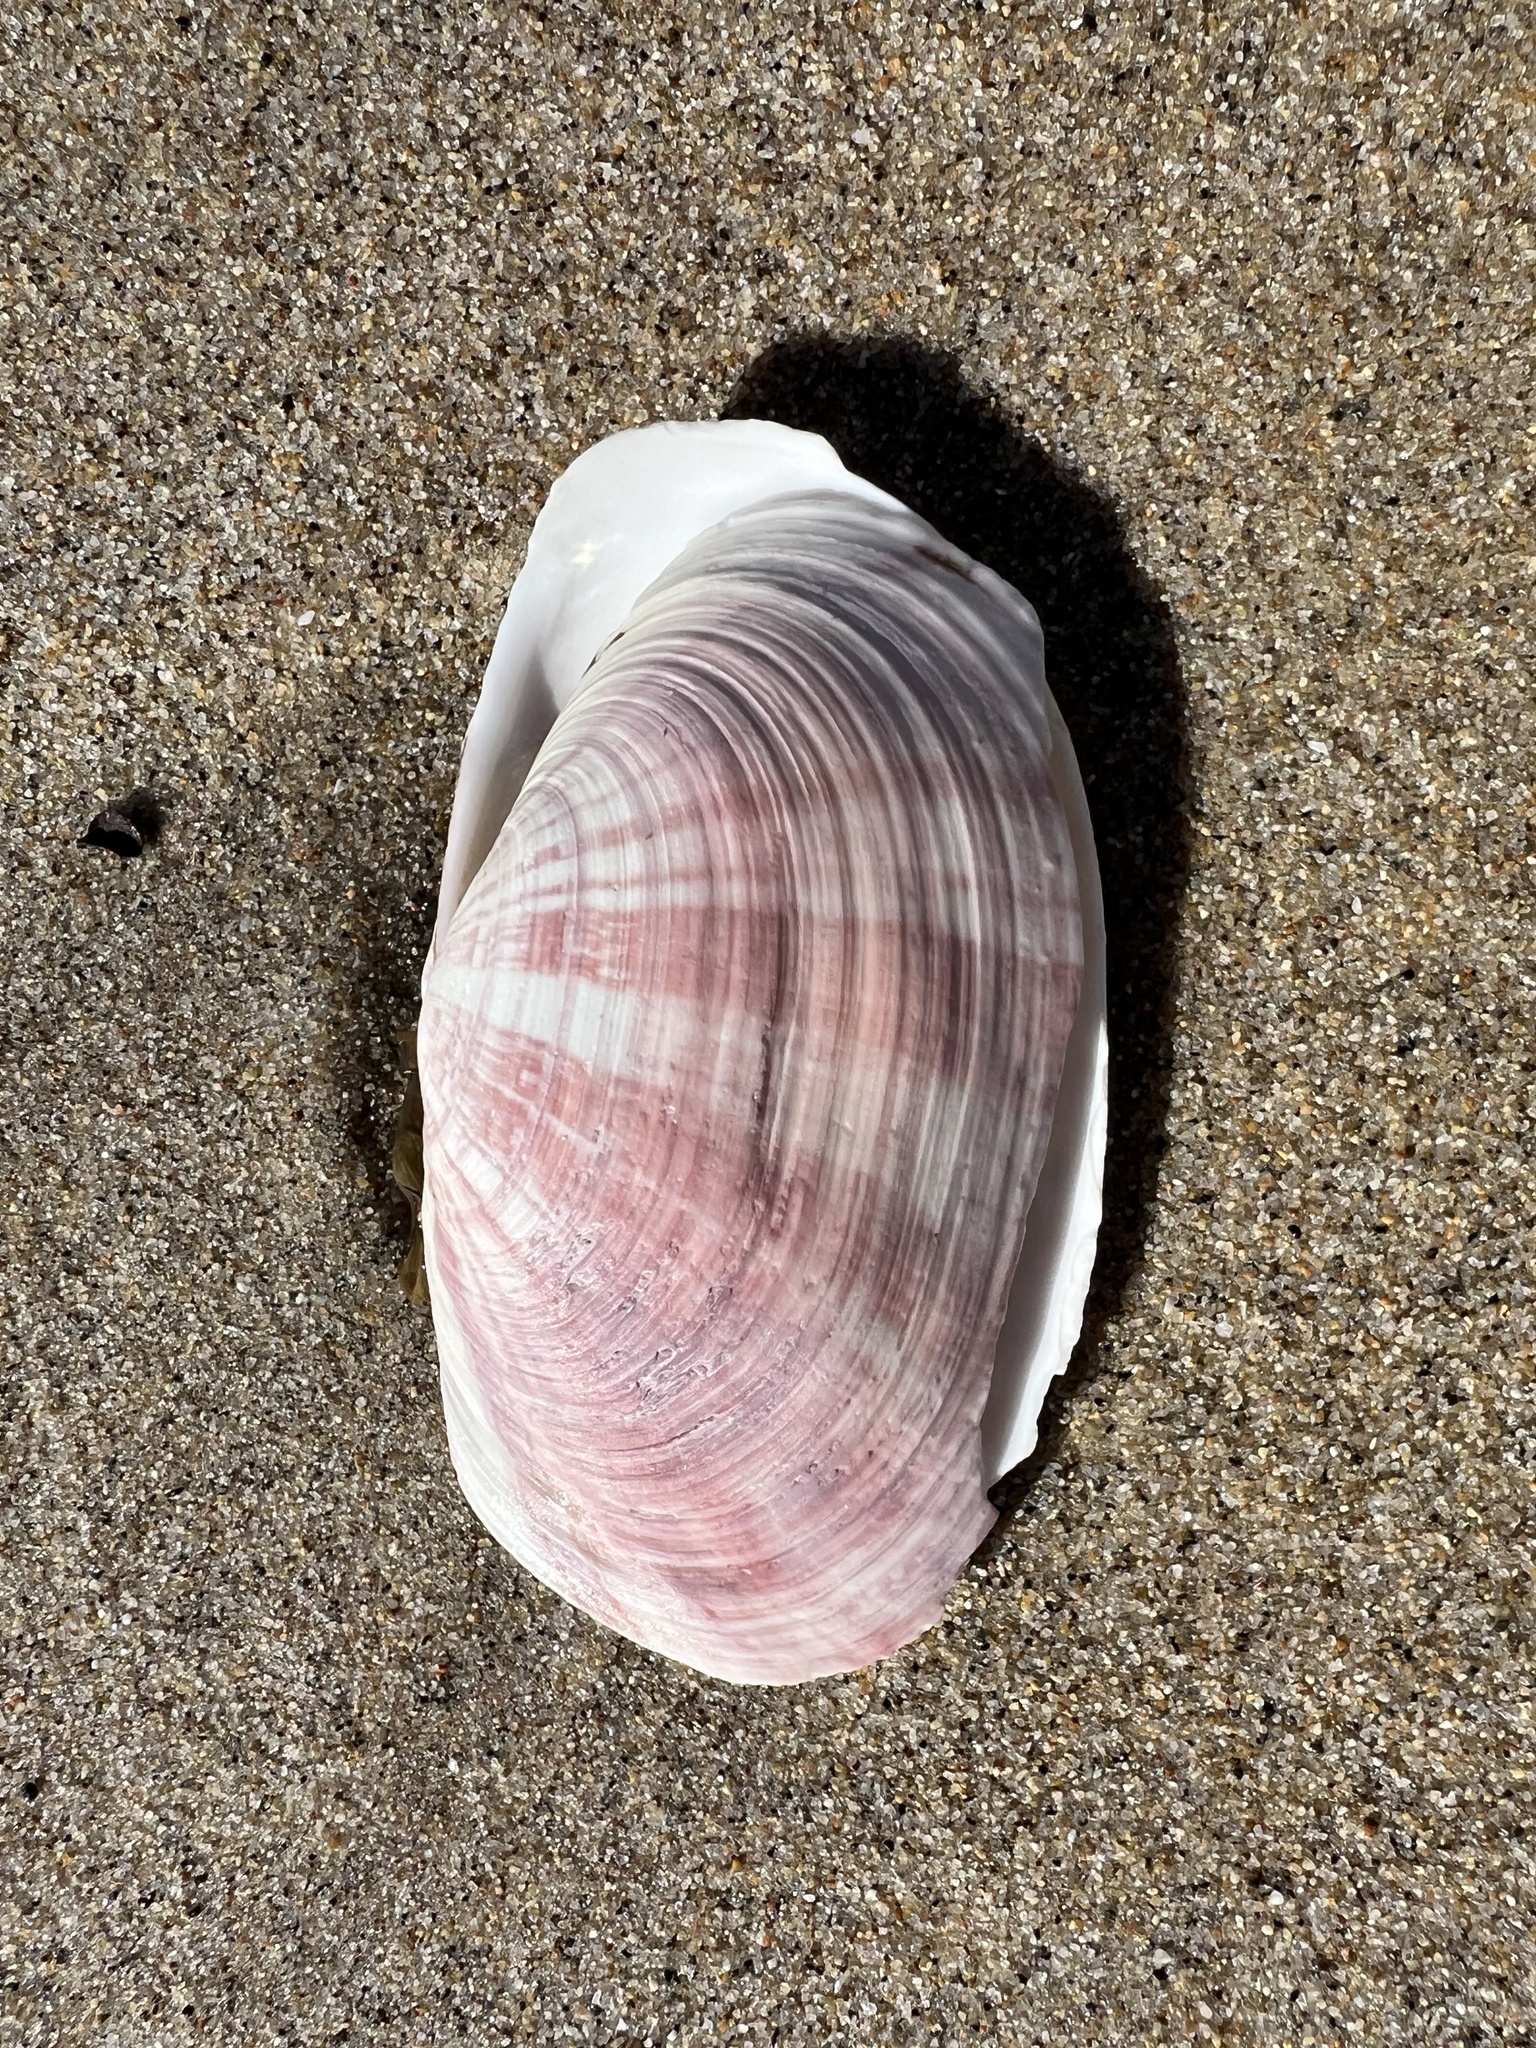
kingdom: Animalia
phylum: Mollusca
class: Bivalvia
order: Cardiida
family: Psammobiidae
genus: Gari
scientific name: Gari californica
